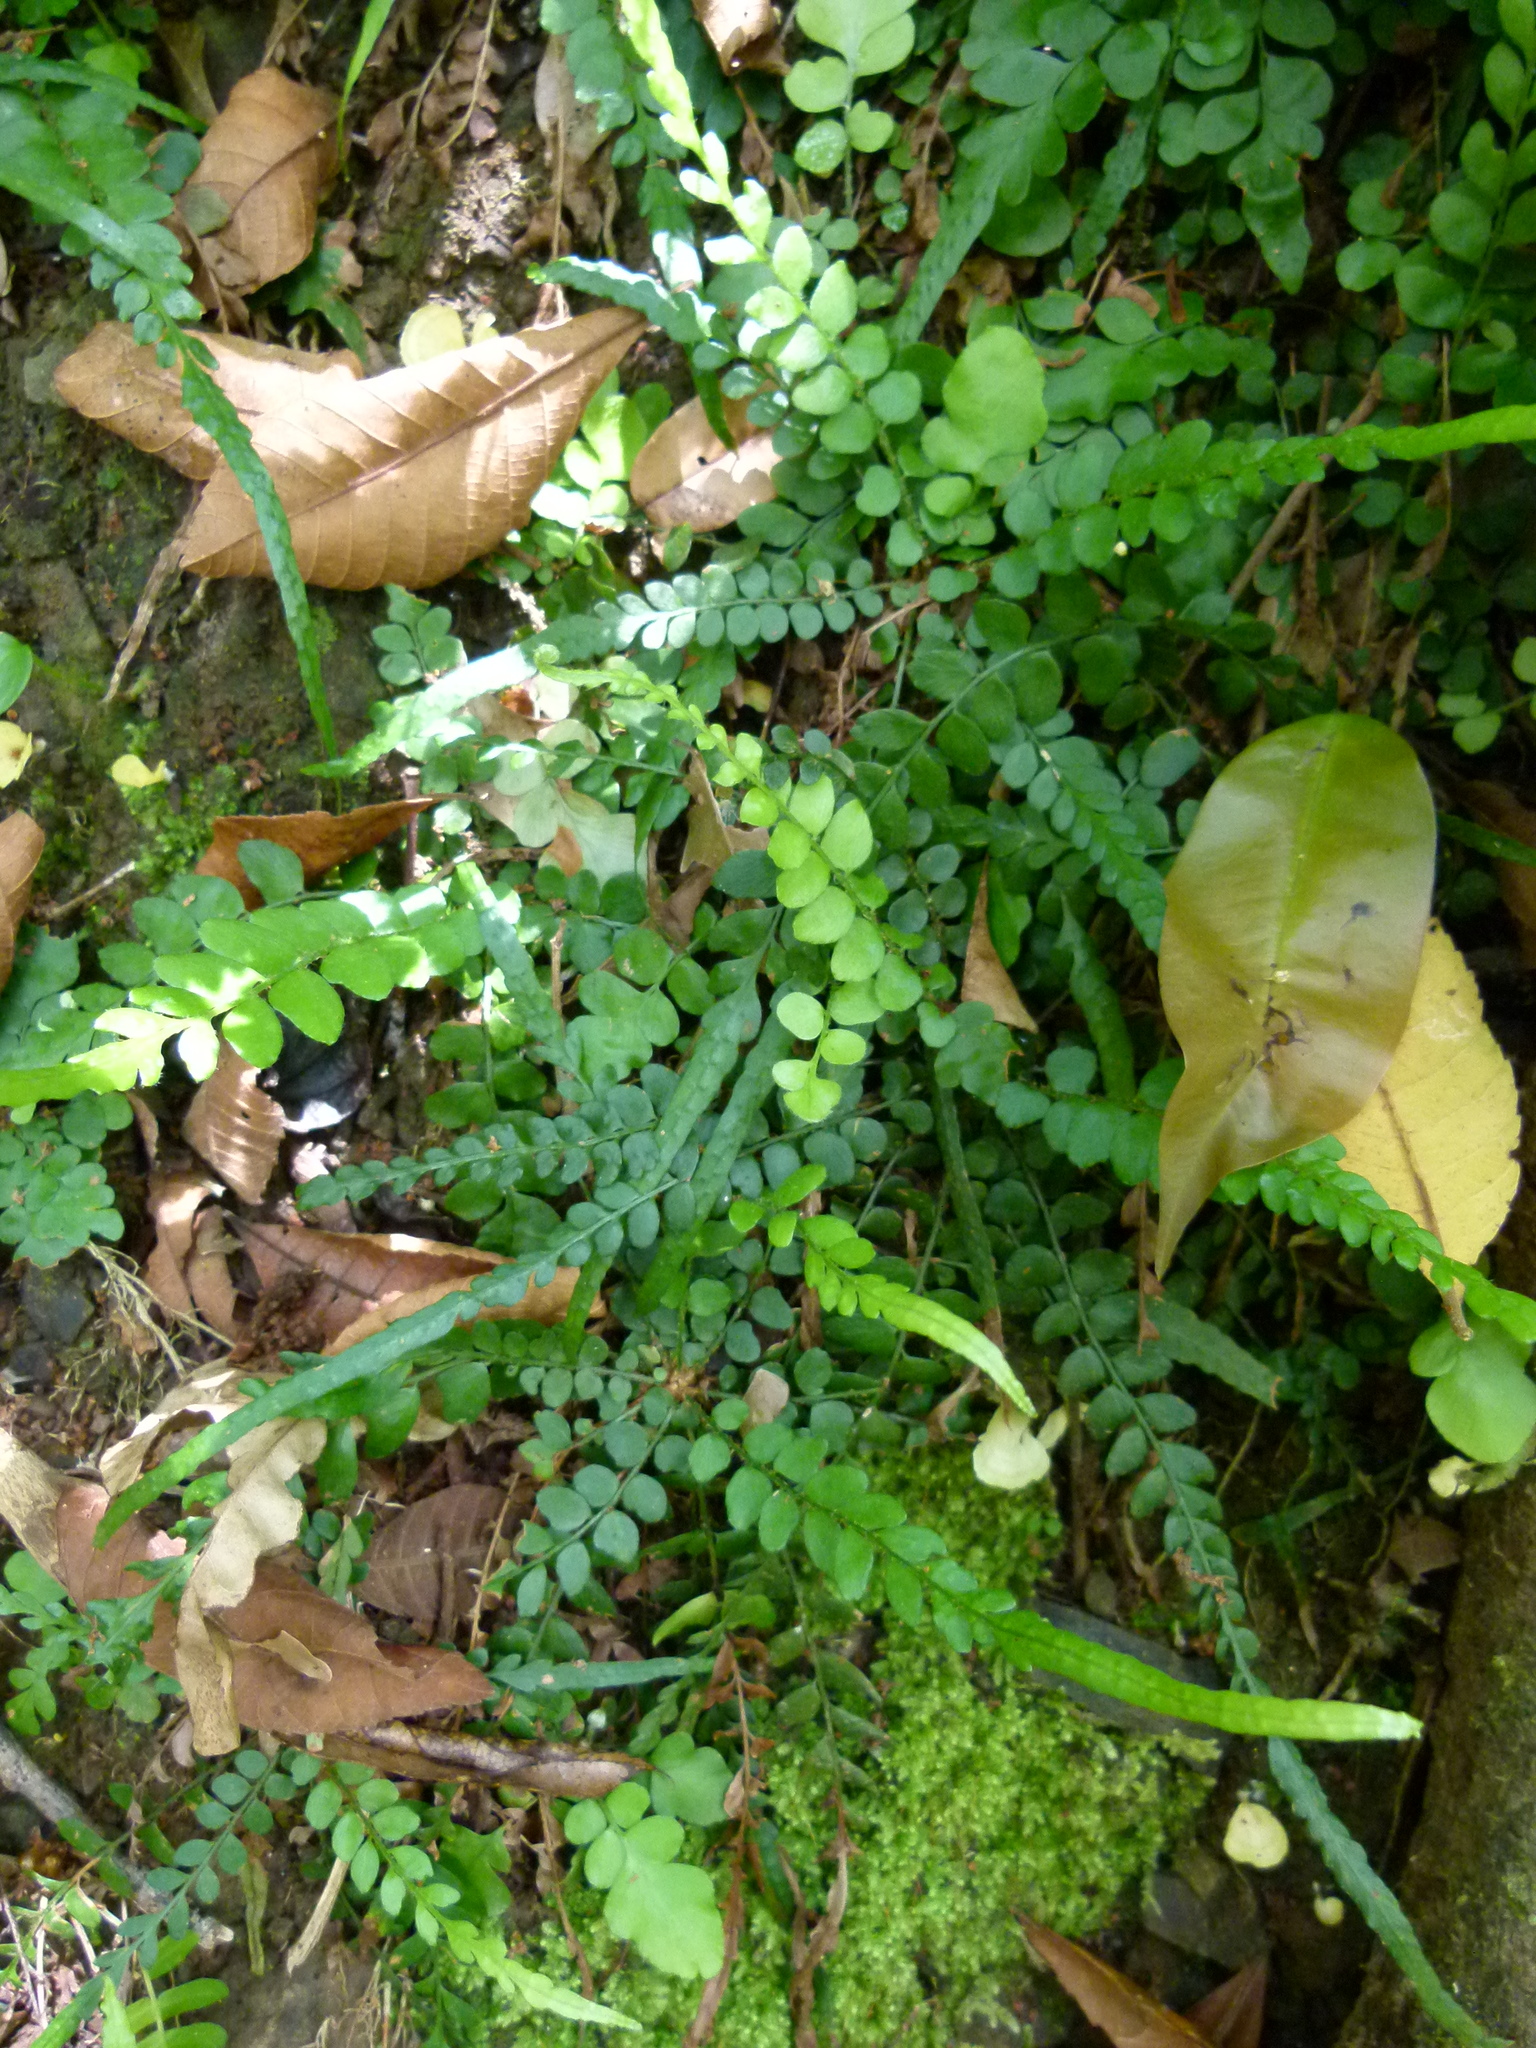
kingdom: Plantae
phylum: Tracheophyta
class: Polypodiopsida
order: Polypodiales
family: Dryopteridaceae
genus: Polystichum
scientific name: Polystichum rhizophyllum
